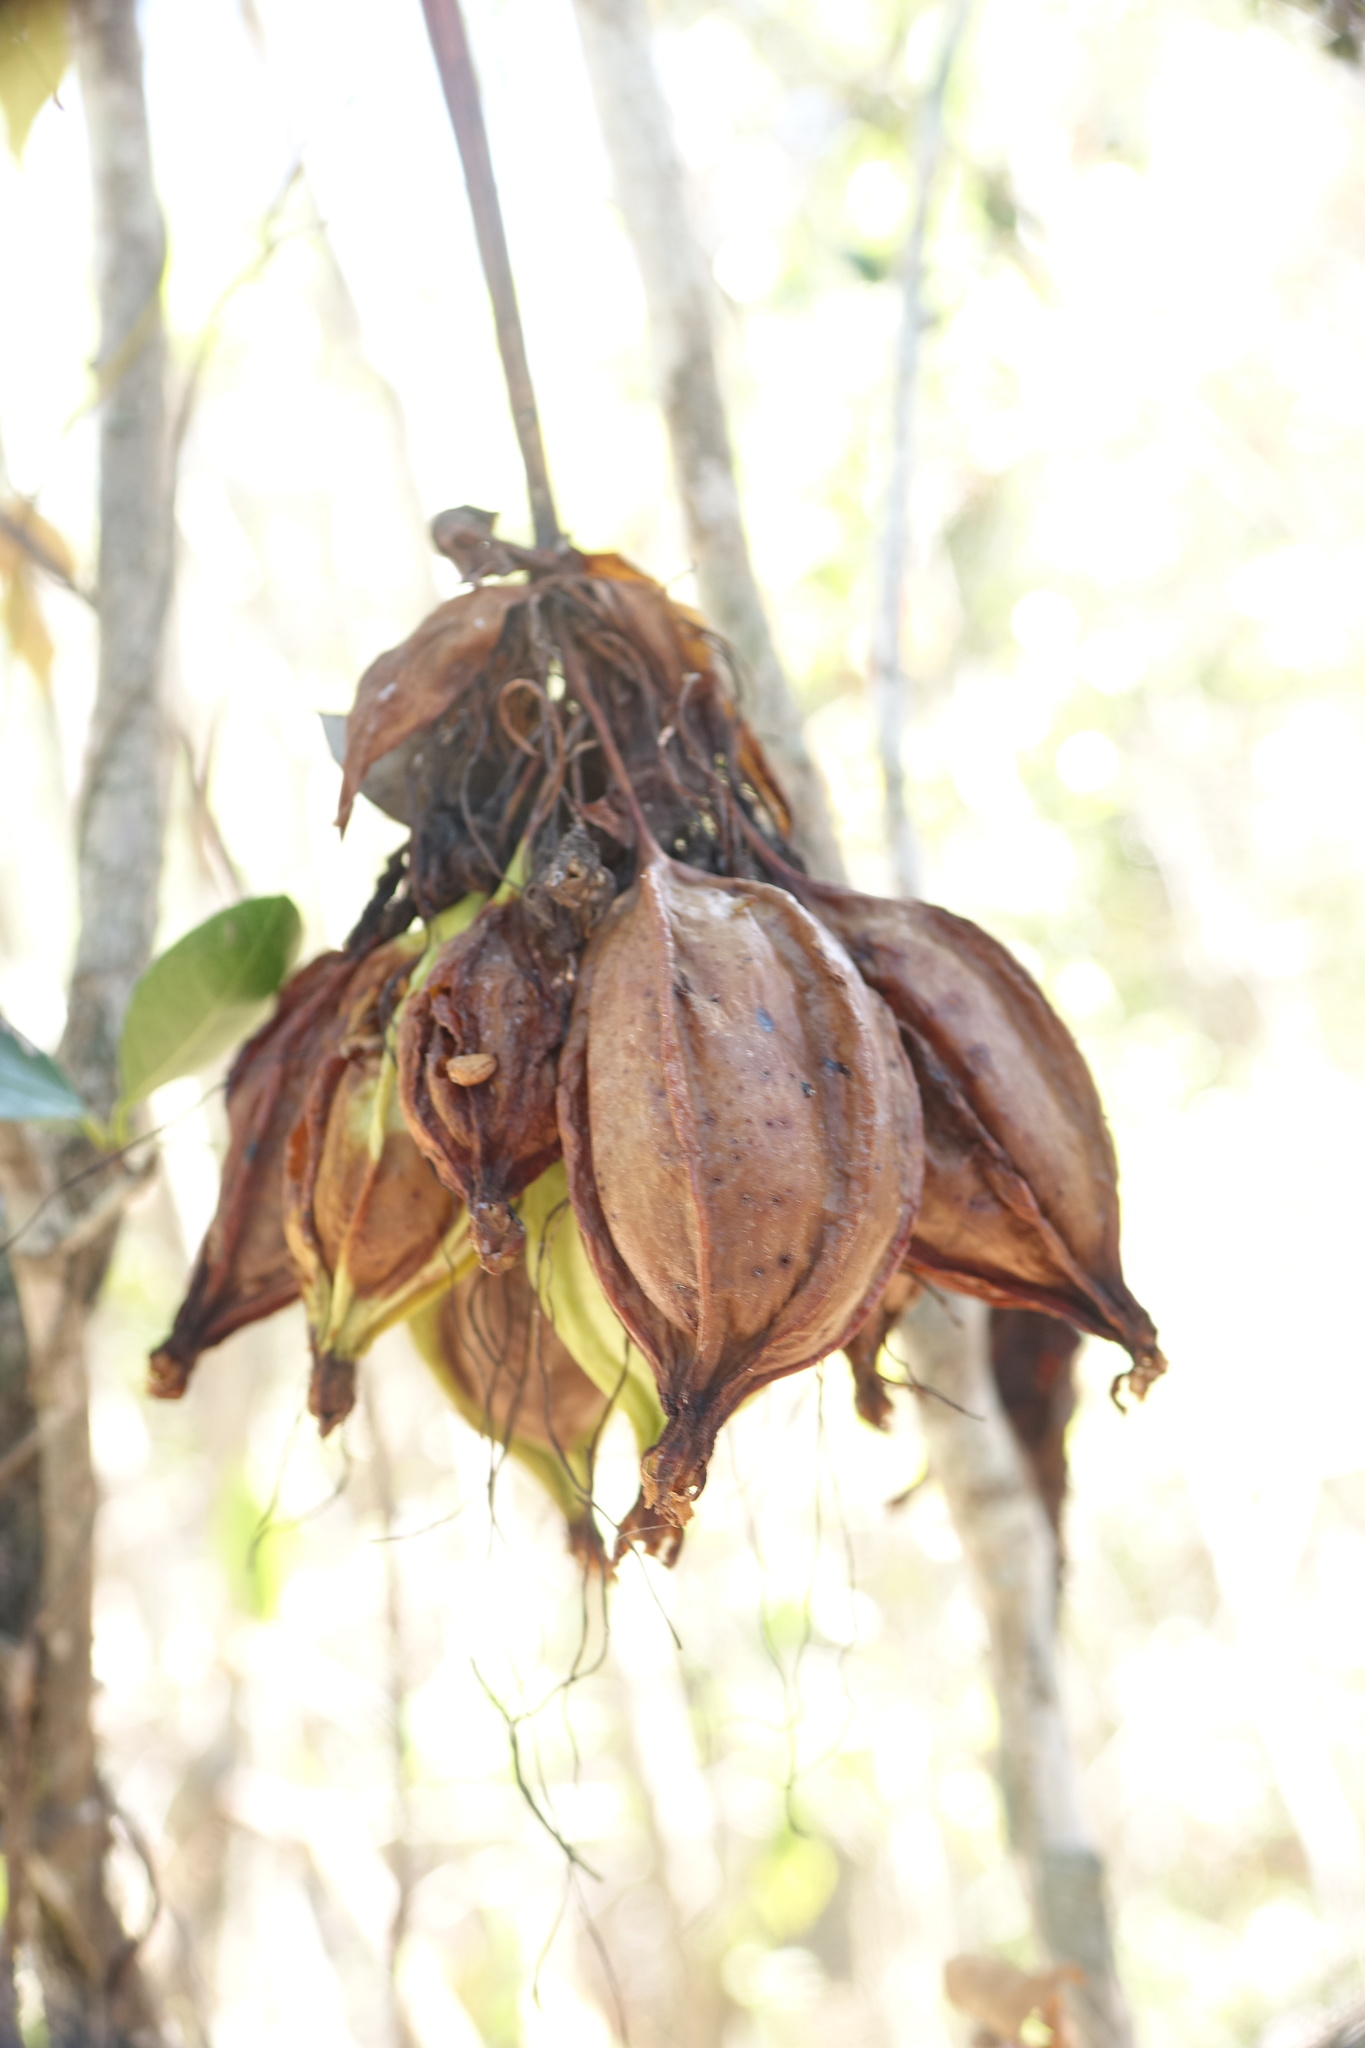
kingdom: Plantae
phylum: Tracheophyta
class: Liliopsida
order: Dioscoreales
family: Dioscoreaceae
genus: Tacca
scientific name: Tacca leontopetaloides
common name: Arrowroot
